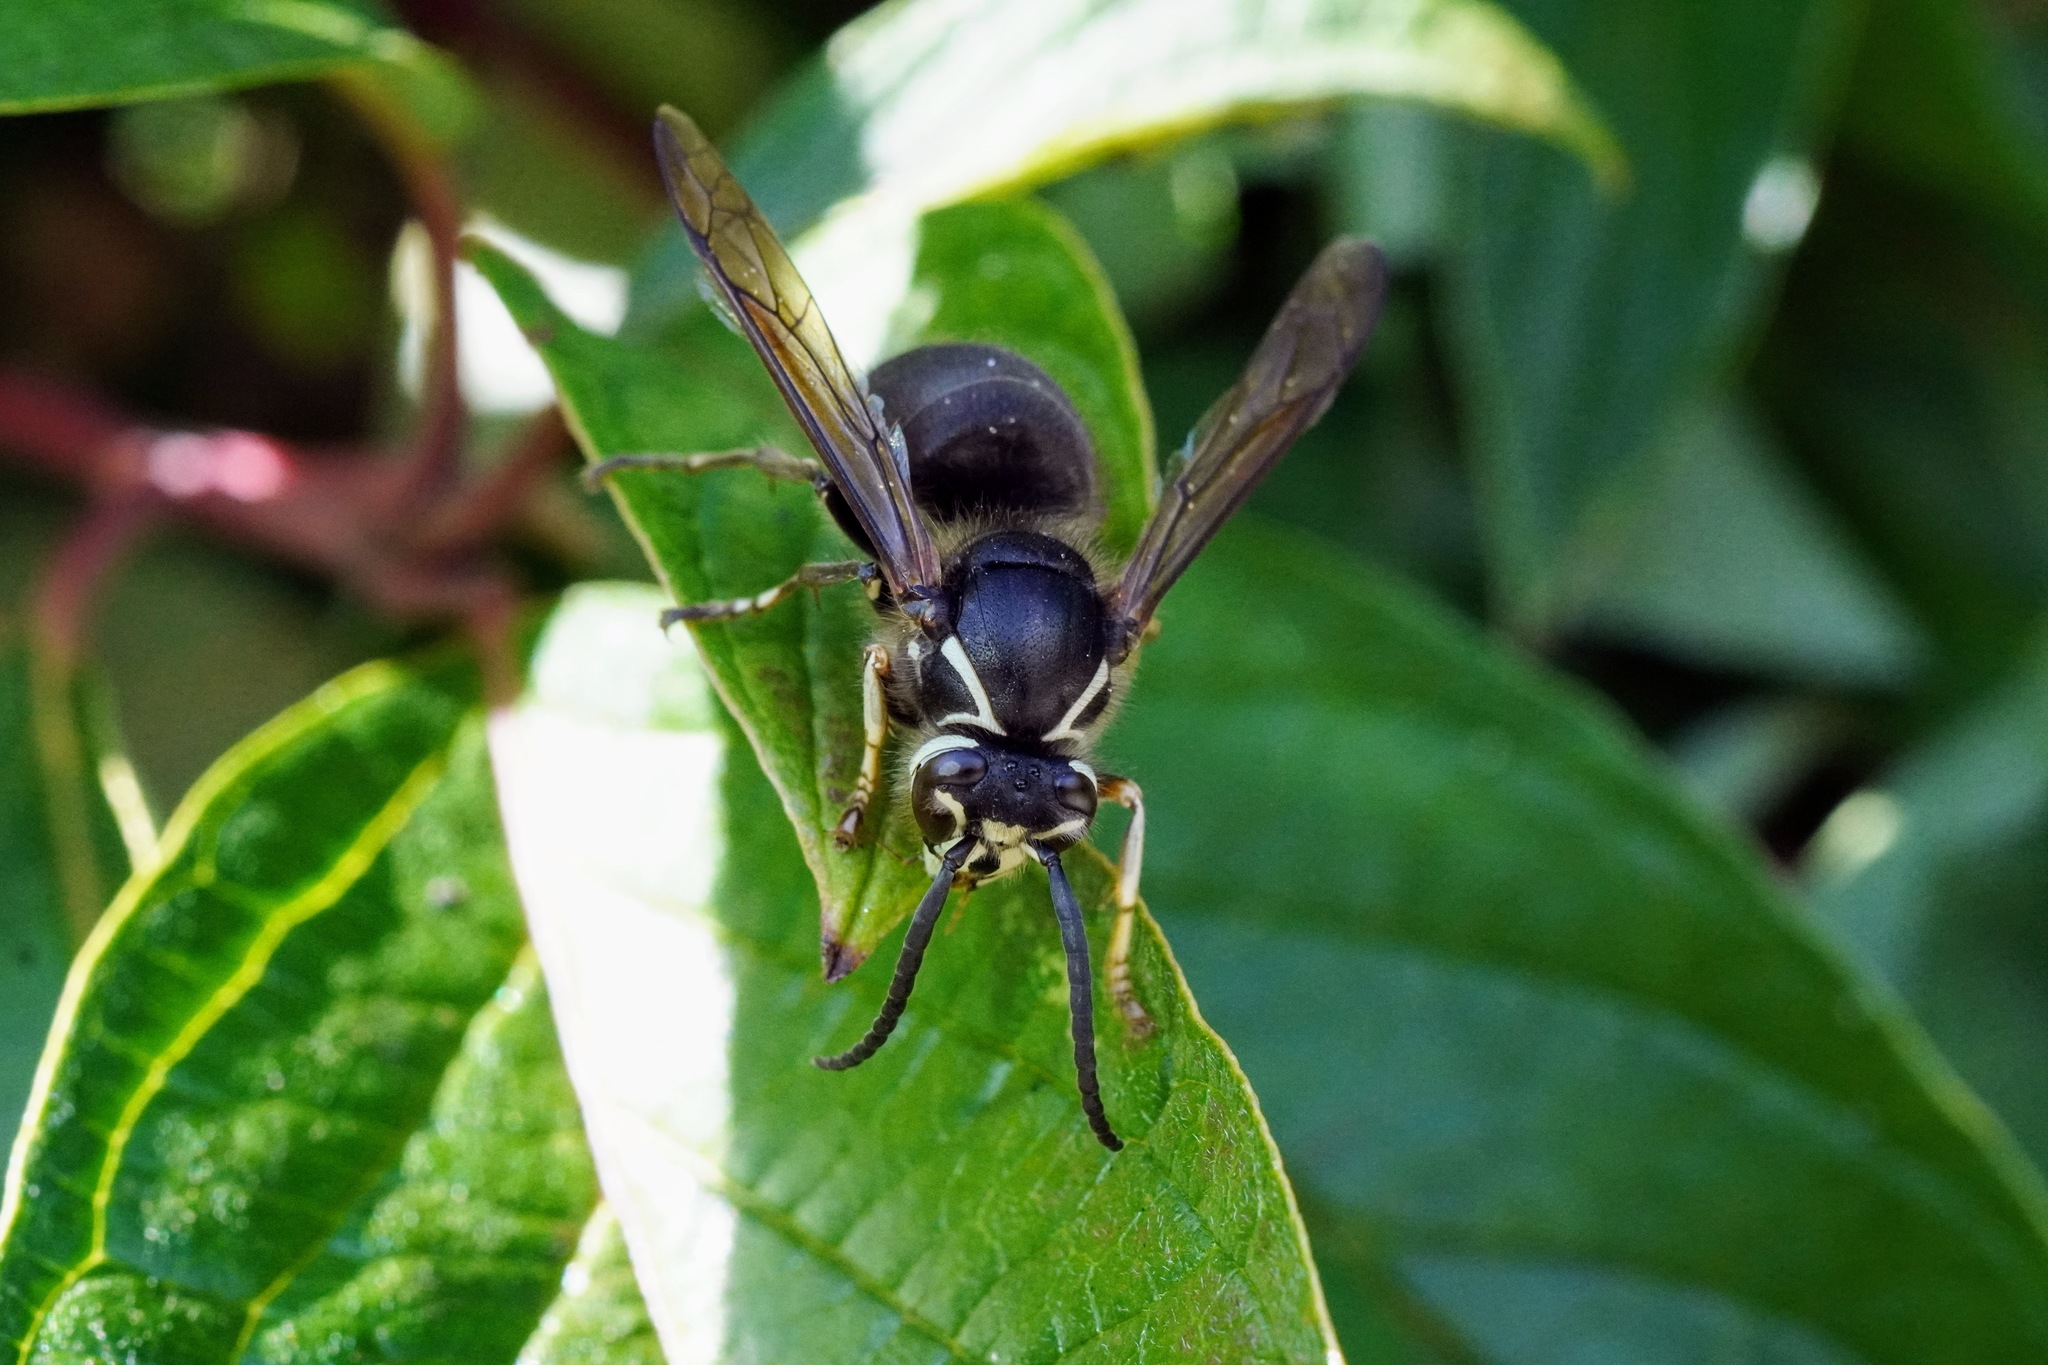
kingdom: Animalia
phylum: Arthropoda
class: Insecta
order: Hymenoptera
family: Vespidae
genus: Dolichovespula
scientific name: Dolichovespula maculata
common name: Bald-faced hornet
